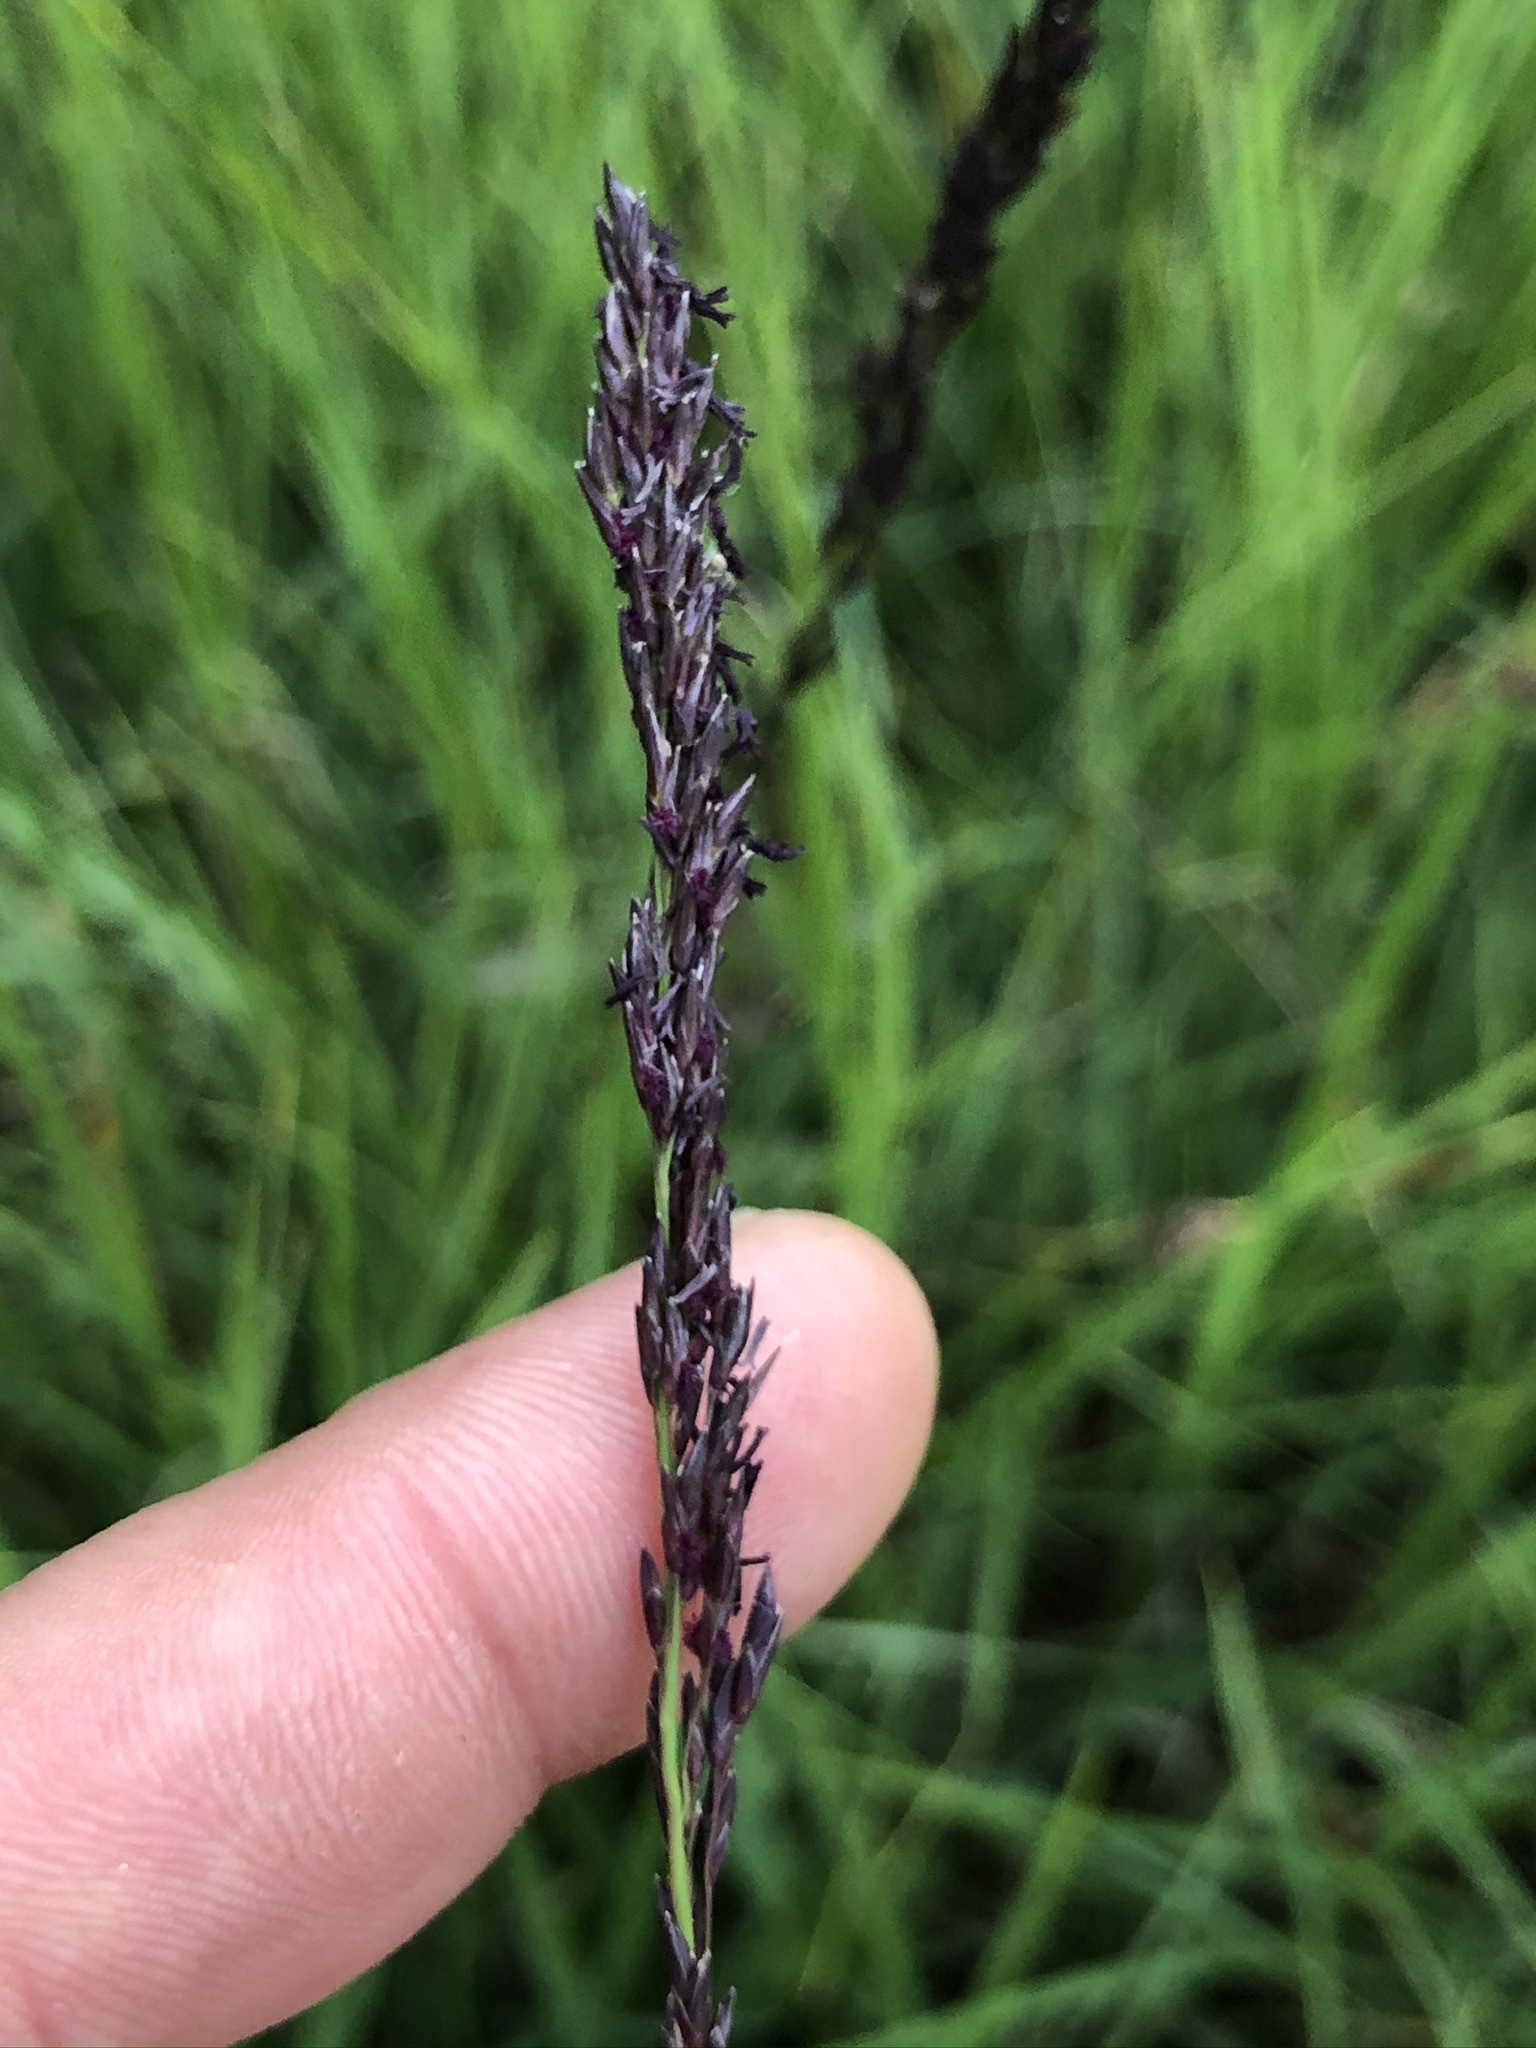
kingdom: Plantae
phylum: Tracheophyta
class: Liliopsida
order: Poales
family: Poaceae
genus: Molinia
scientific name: Molinia caerulea
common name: Purple moor-grass
